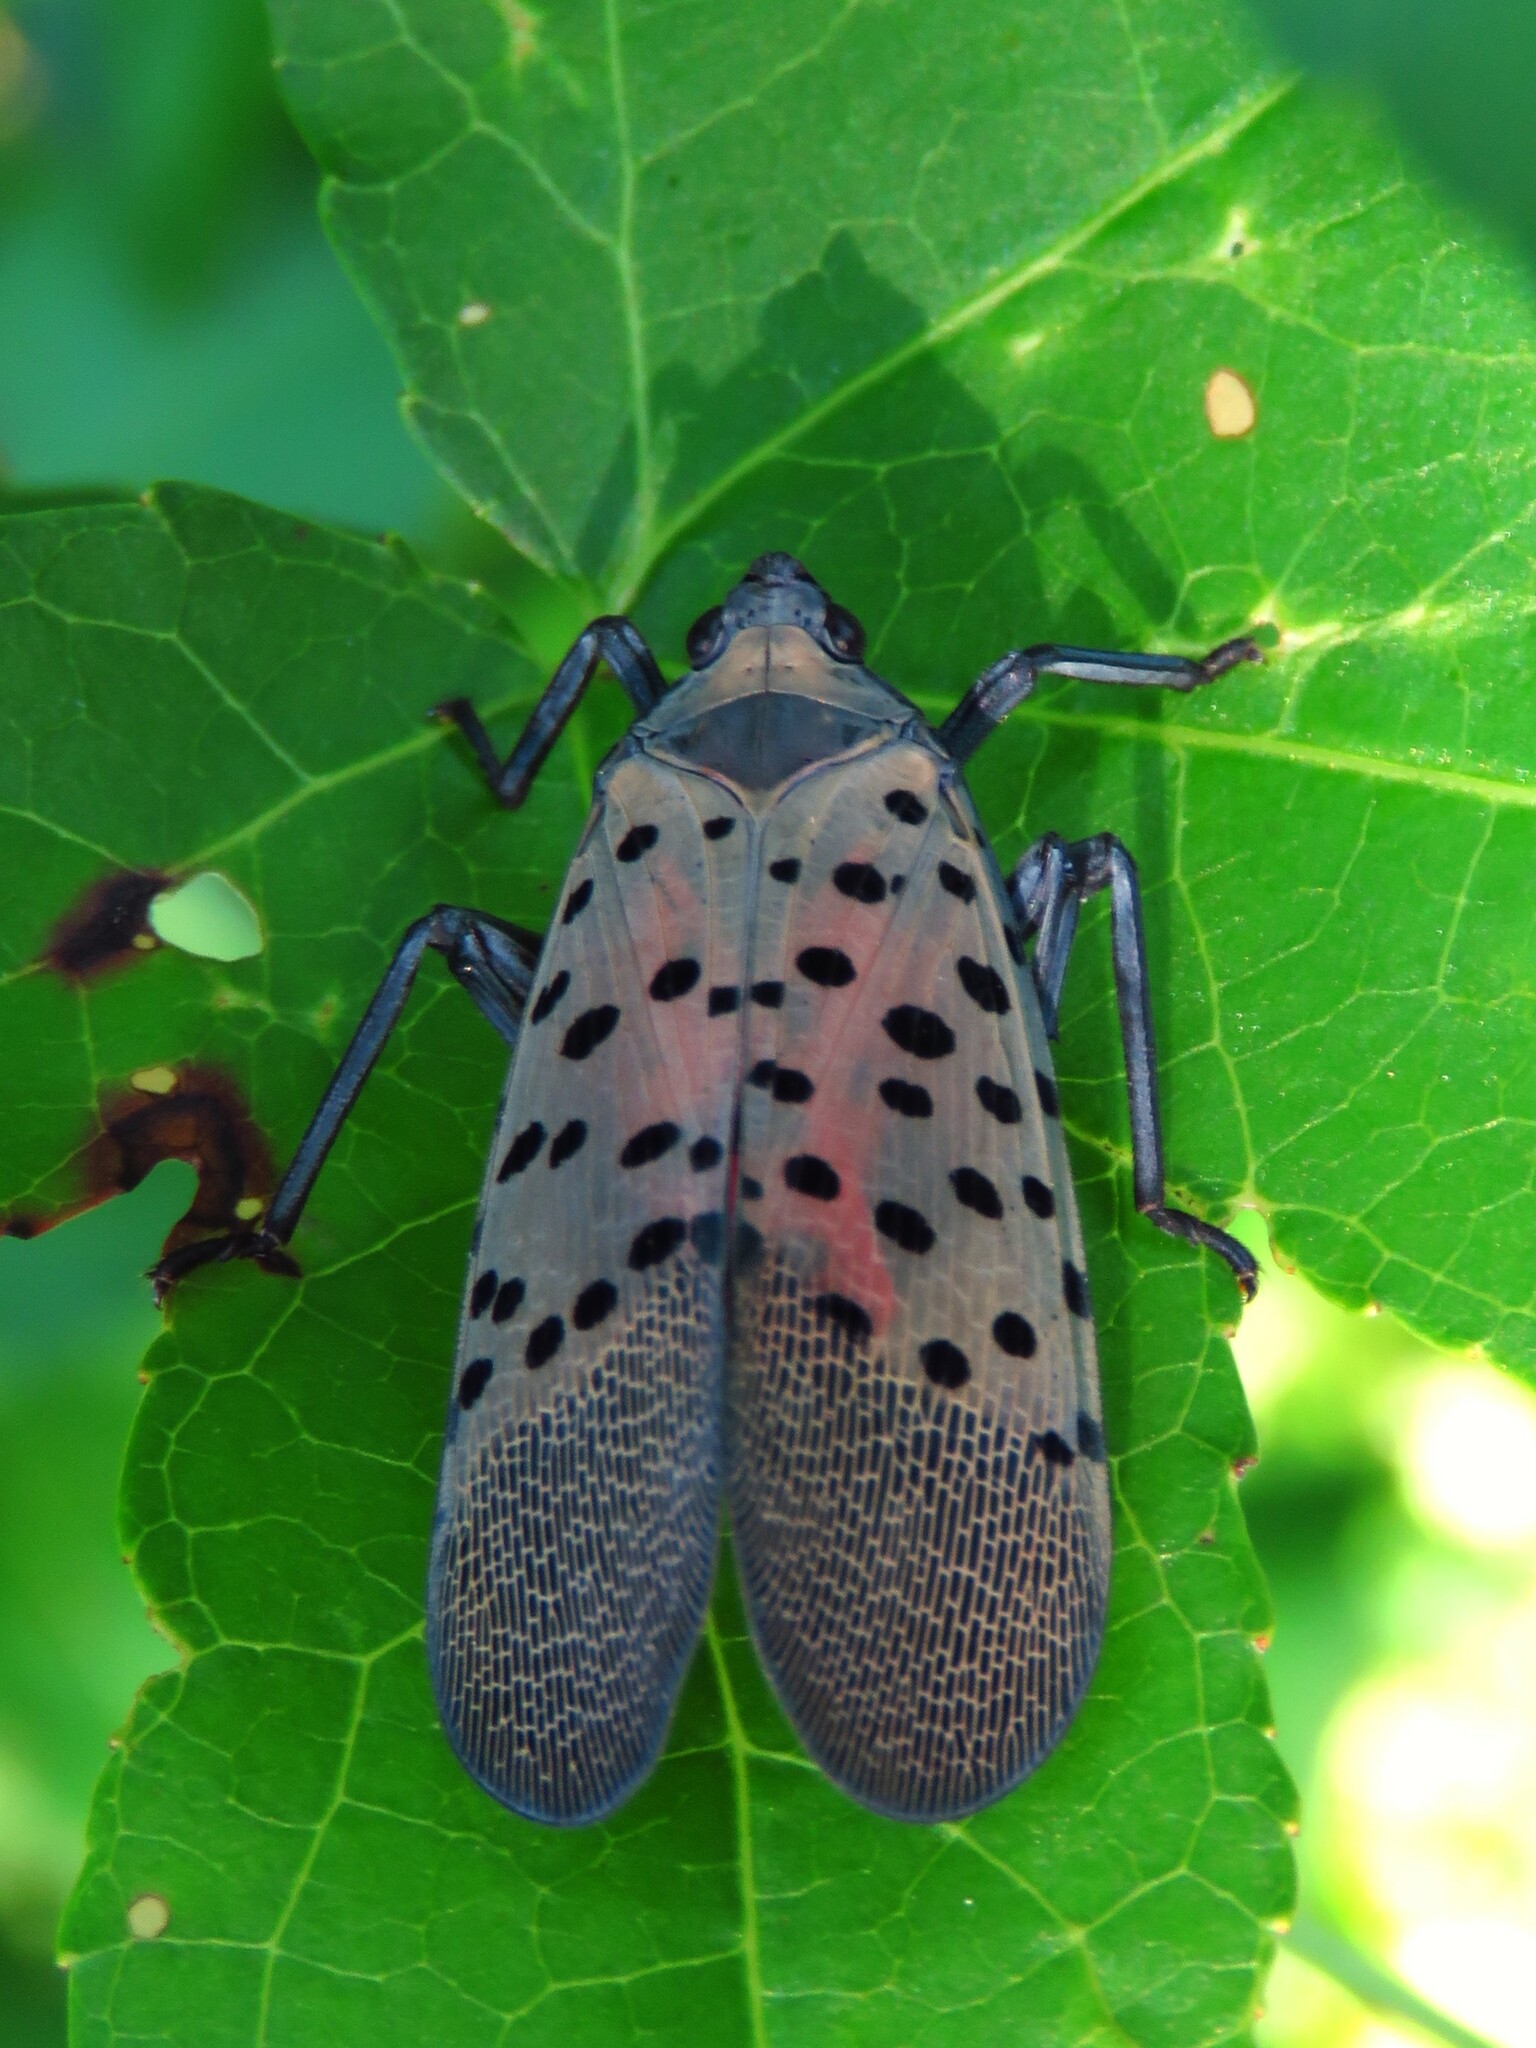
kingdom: Animalia
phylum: Arthropoda
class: Insecta
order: Hemiptera
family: Fulgoridae
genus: Lycorma
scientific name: Lycorma delicatula
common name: Spotted lanternfly
